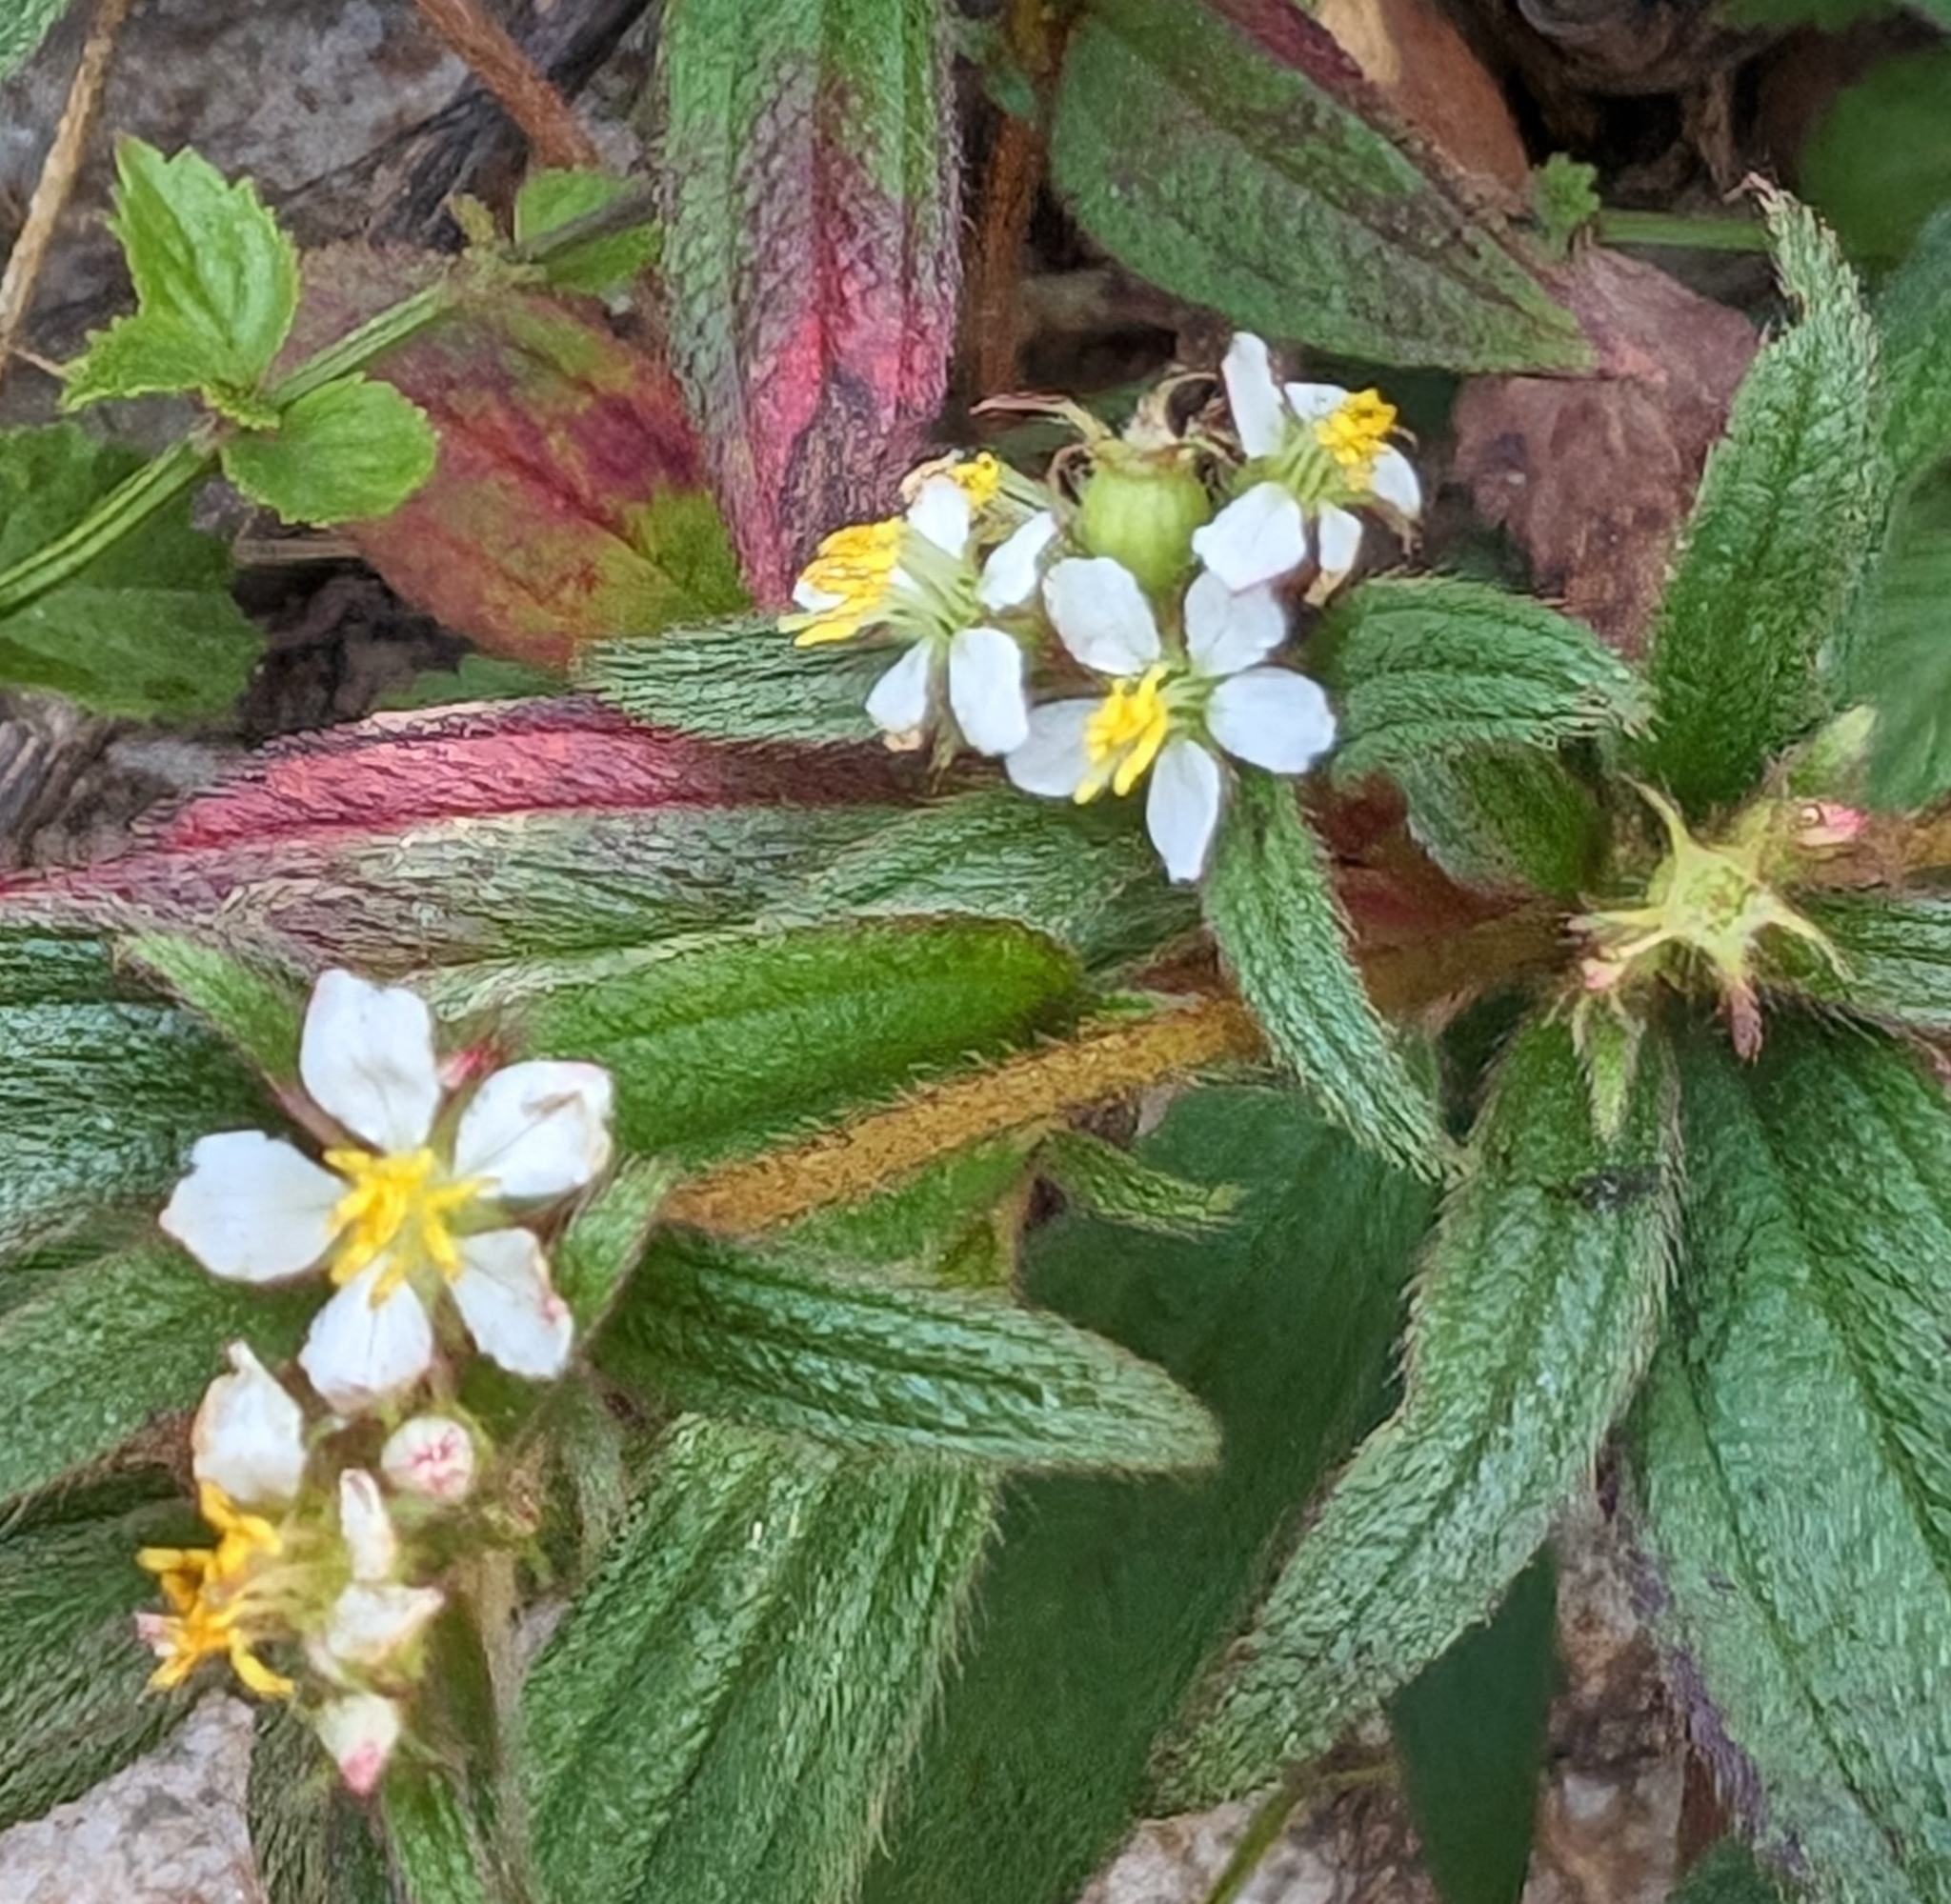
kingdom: Plantae
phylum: Tracheophyta
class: Magnoliopsida
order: Myrtales
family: Melastomataceae
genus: Chaetogastra
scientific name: Chaetogastra longifolia
